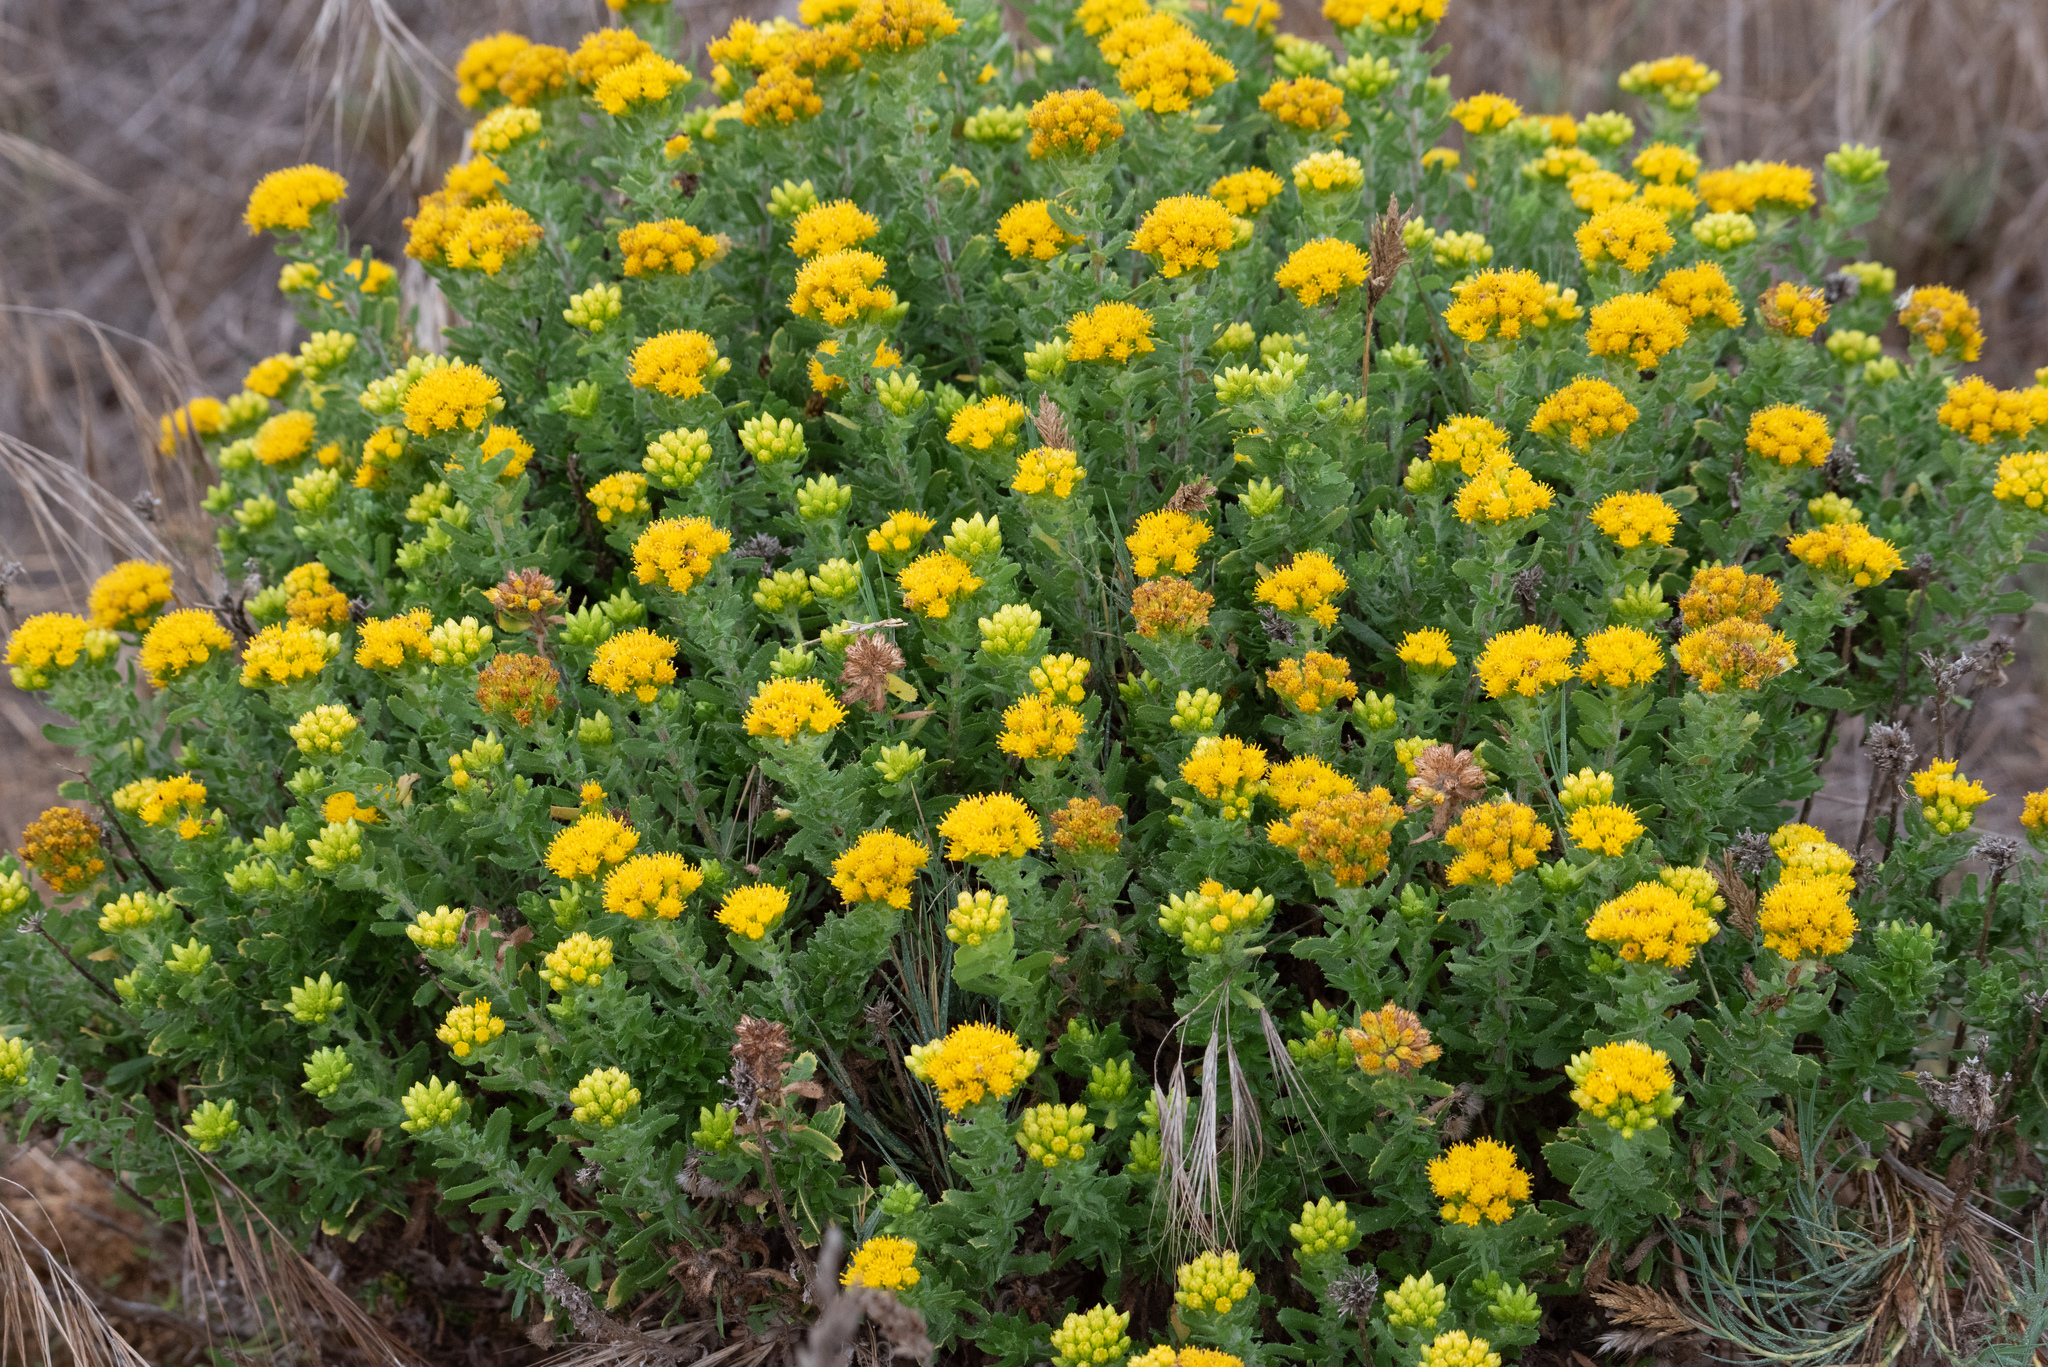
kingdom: Plantae
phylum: Tracheophyta
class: Magnoliopsida
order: Asterales
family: Asteraceae
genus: Isocoma
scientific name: Isocoma menziesii
